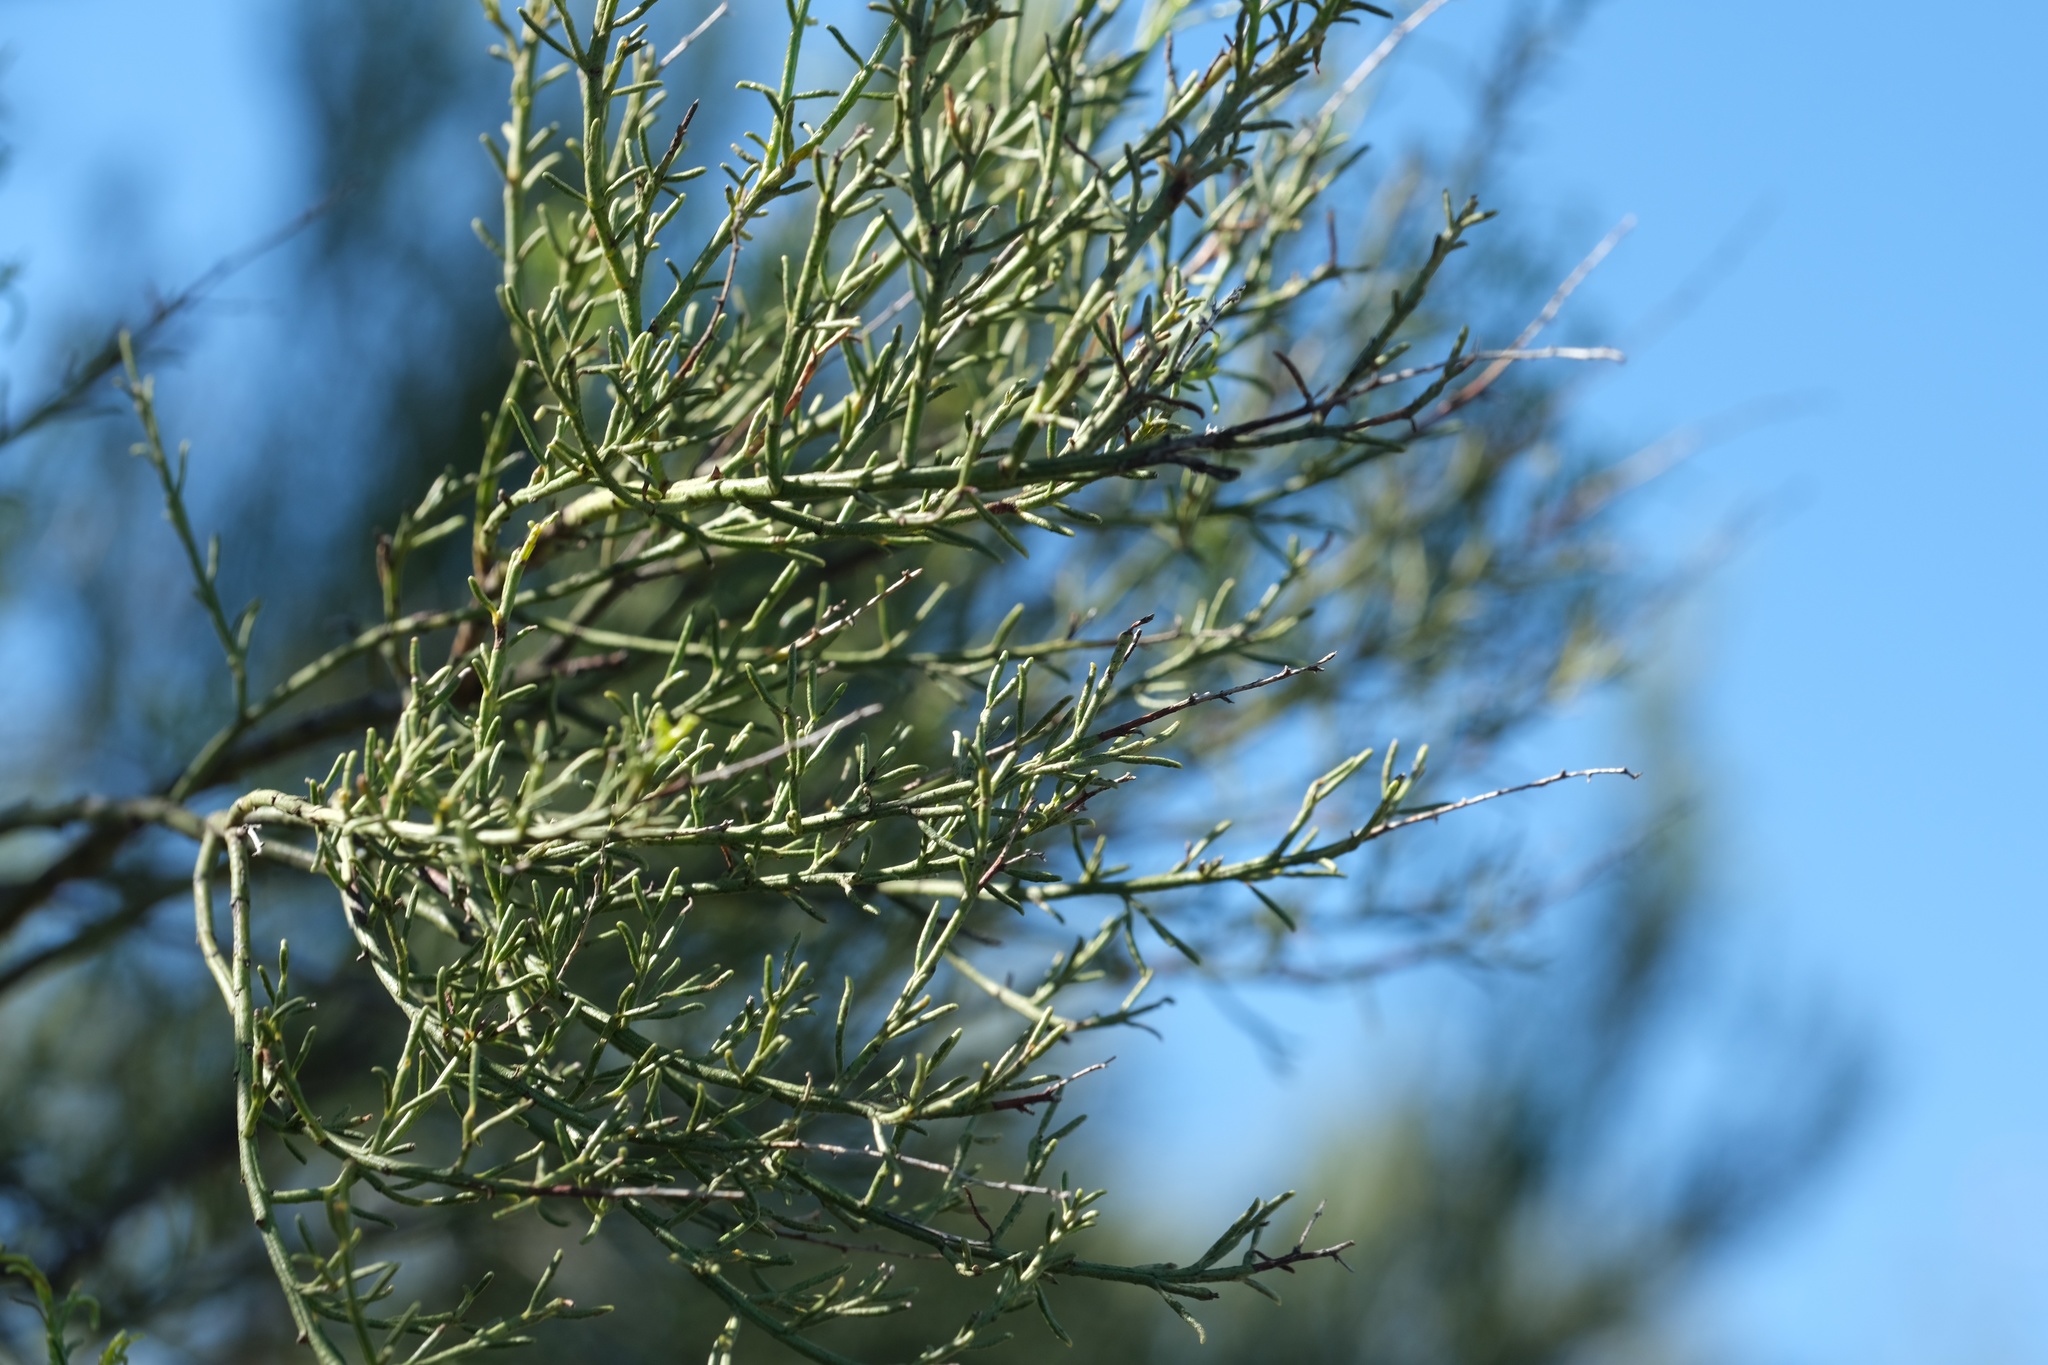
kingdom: Plantae
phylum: Tracheophyta
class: Magnoliopsida
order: Rosales
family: Rosaceae
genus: Adenostoma
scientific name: Adenostoma sparsifolium
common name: Red shank
